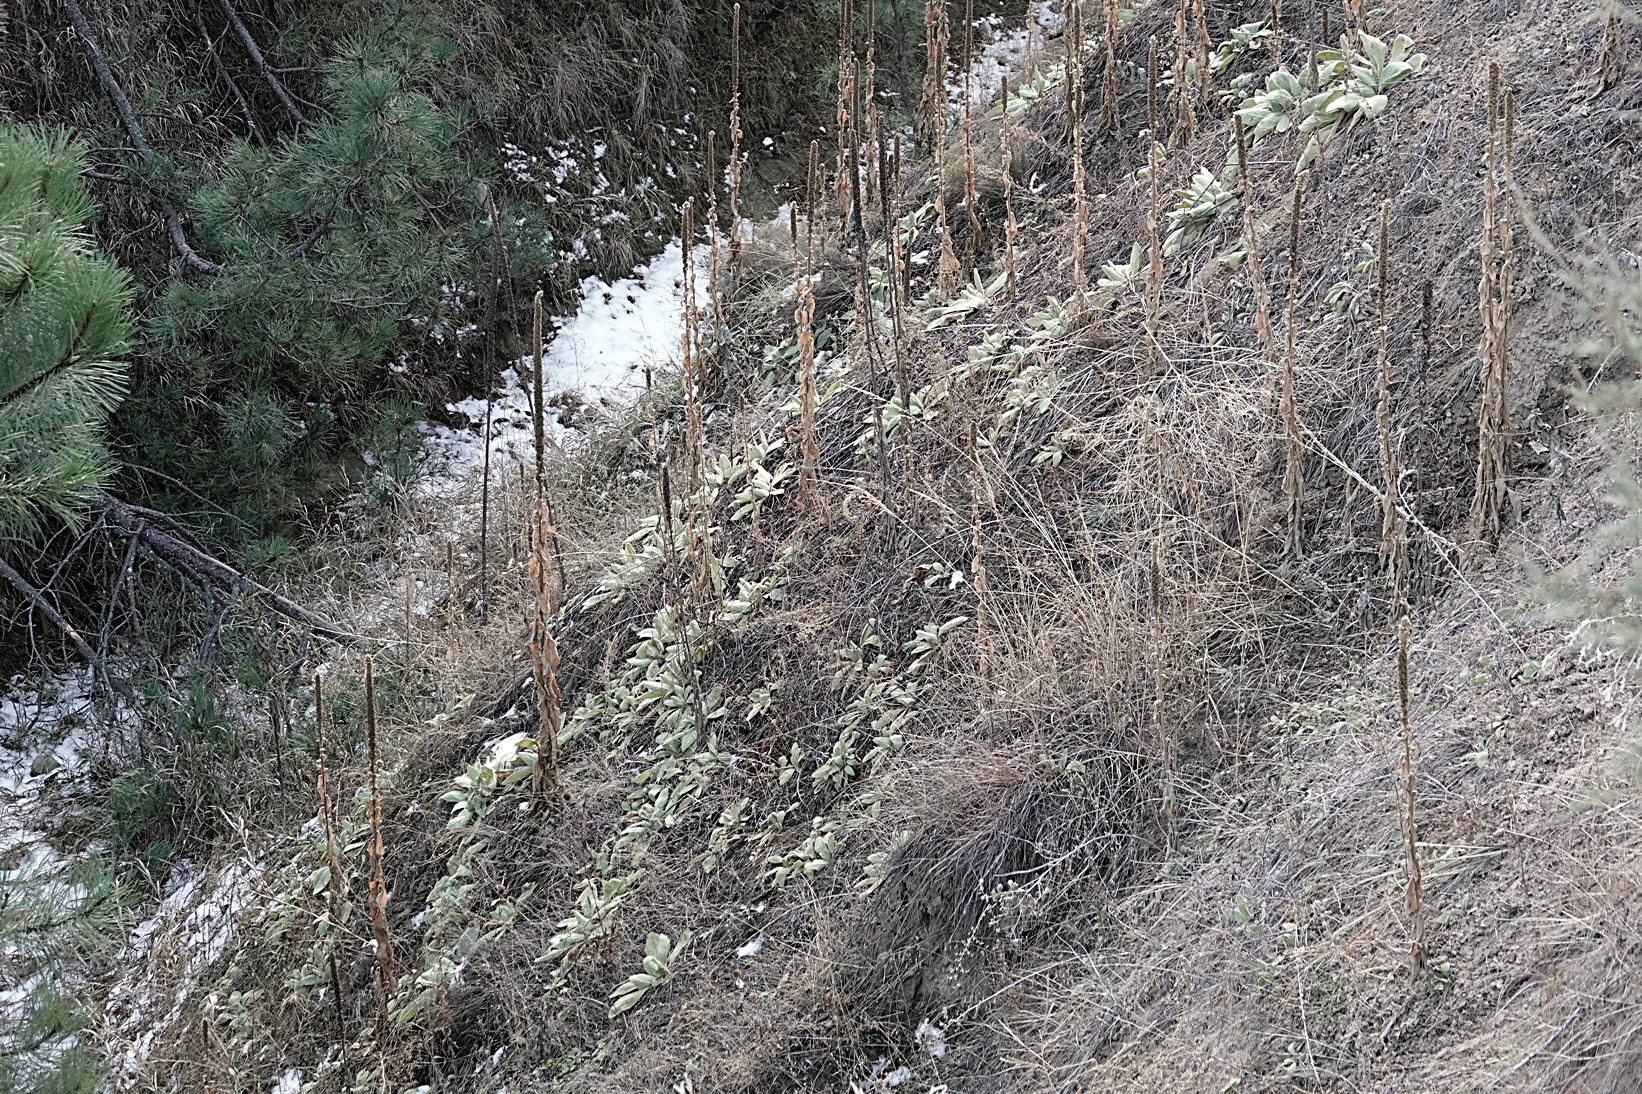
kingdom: Plantae
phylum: Tracheophyta
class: Magnoliopsida
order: Lamiales
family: Scrophulariaceae
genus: Verbascum
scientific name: Verbascum thapsus
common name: Common mullein
